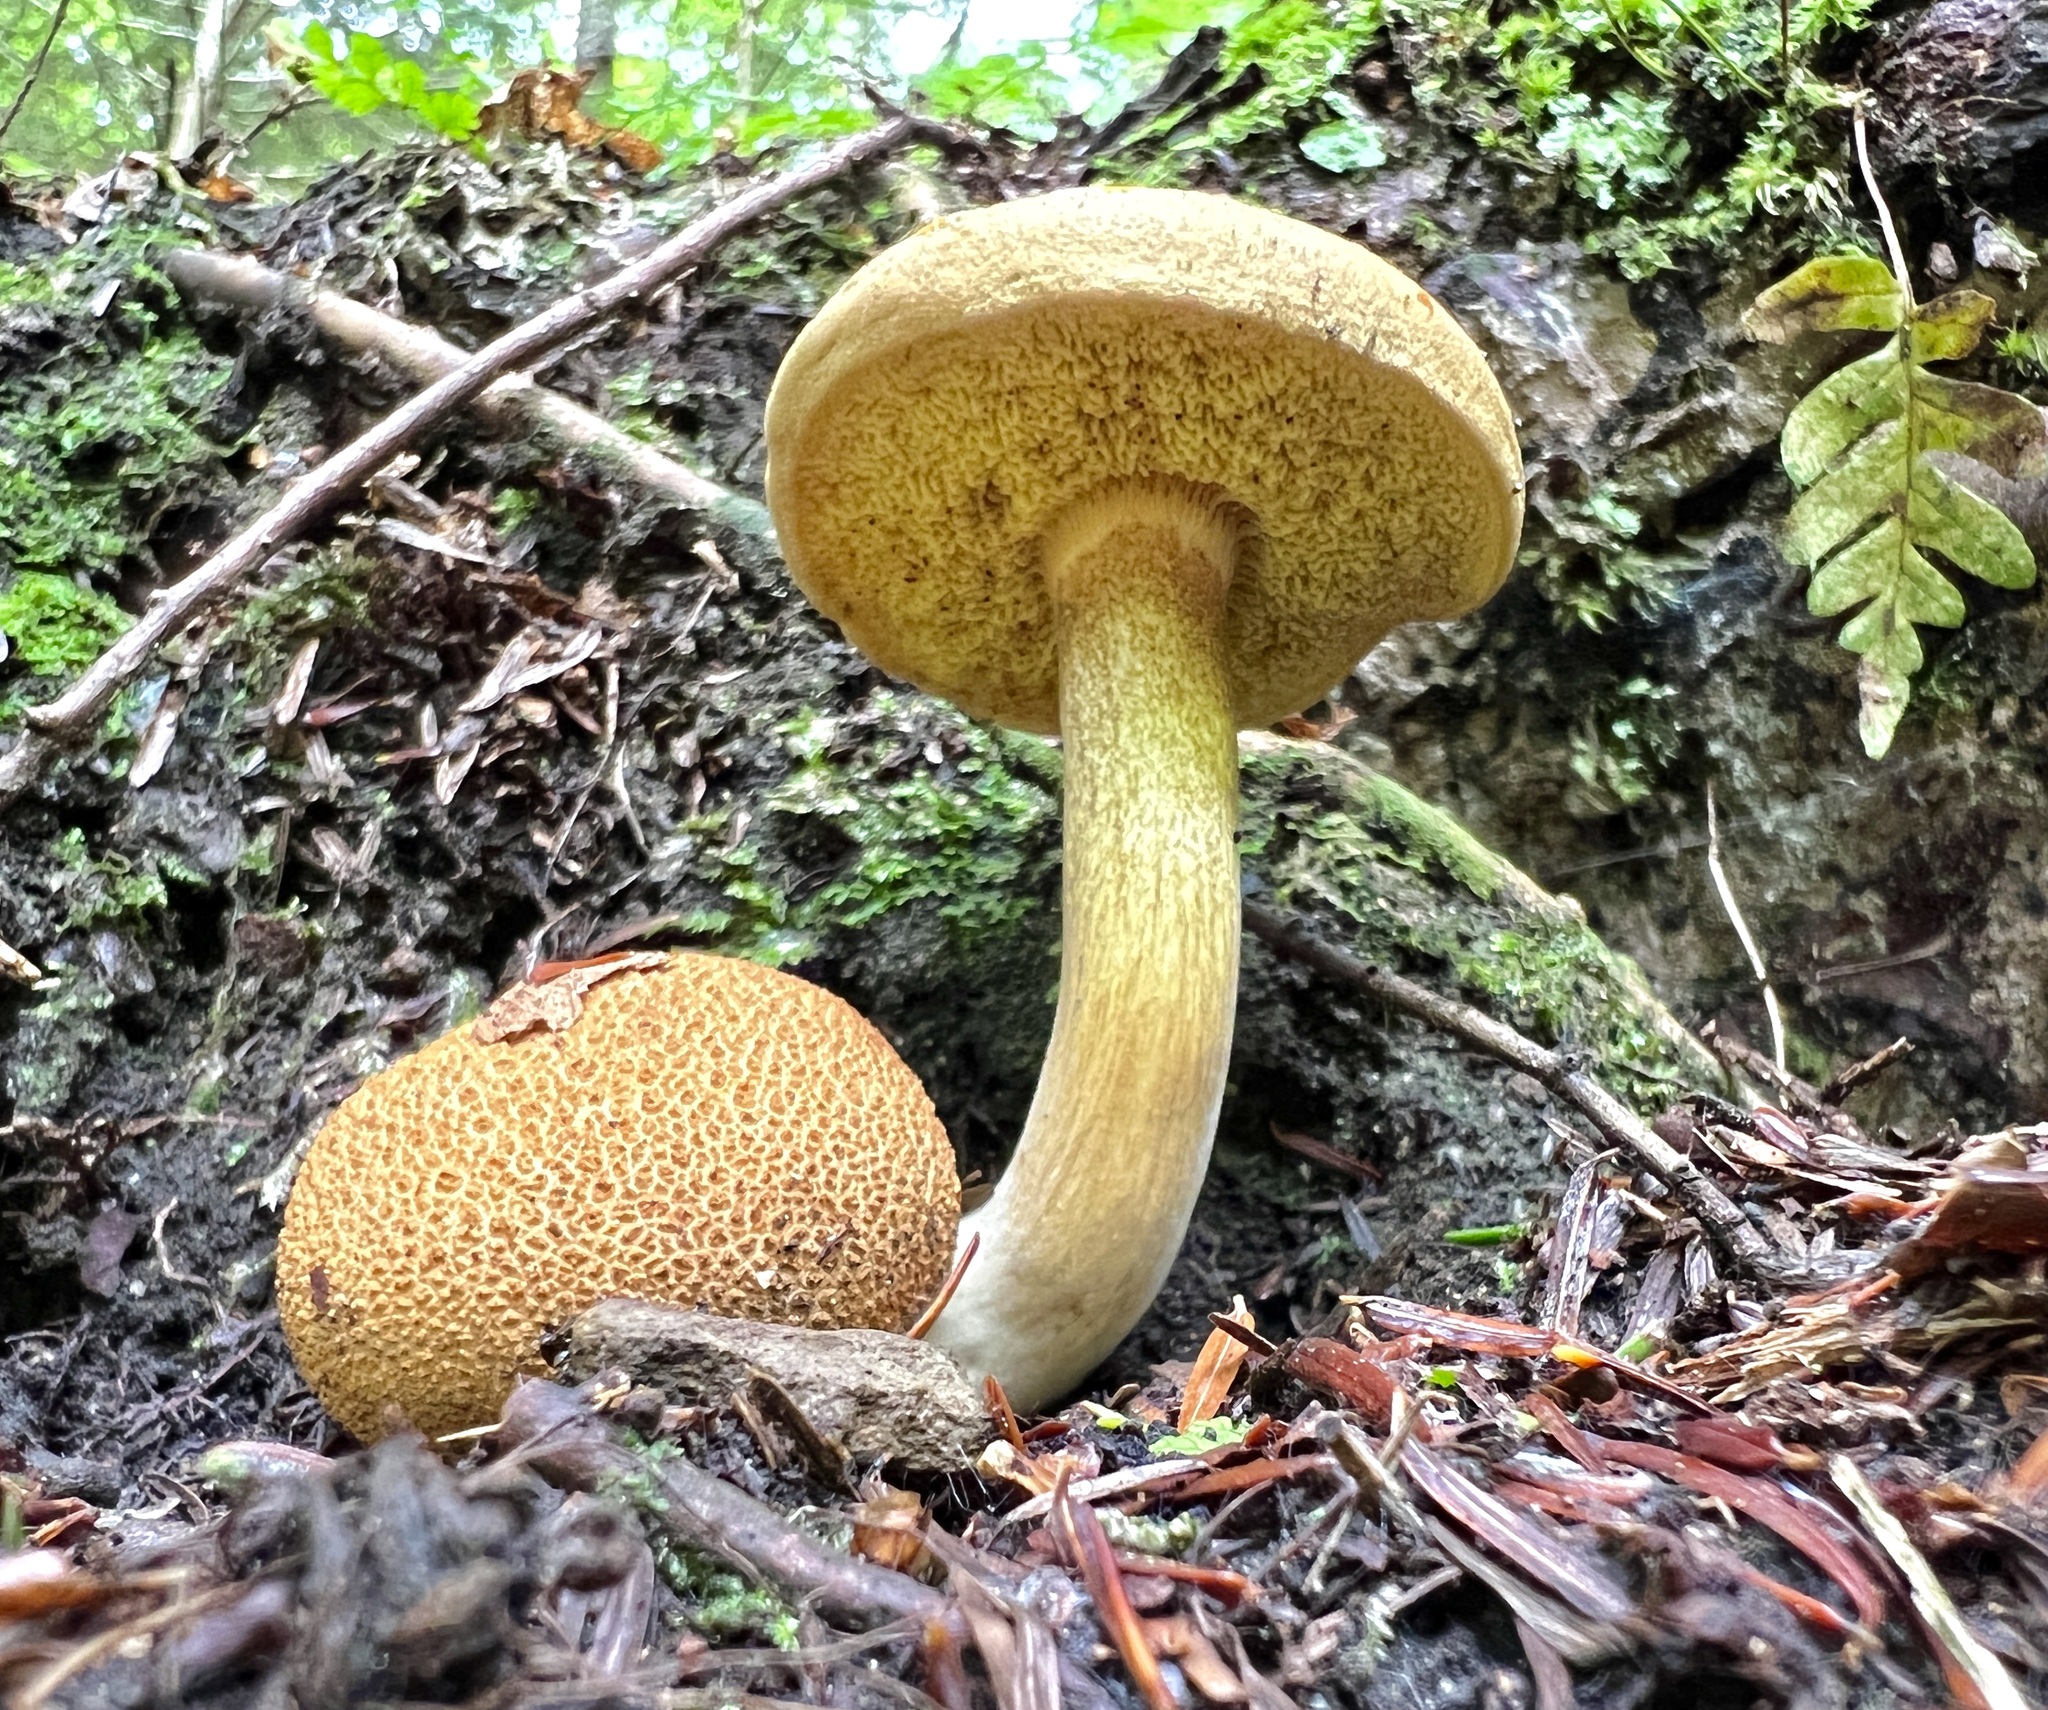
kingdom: Fungi
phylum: Basidiomycota
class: Agaricomycetes
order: Boletales
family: Boletaceae
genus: Pseudoboletus
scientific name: Pseudoboletus parasiticus
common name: Parasitic bolete
